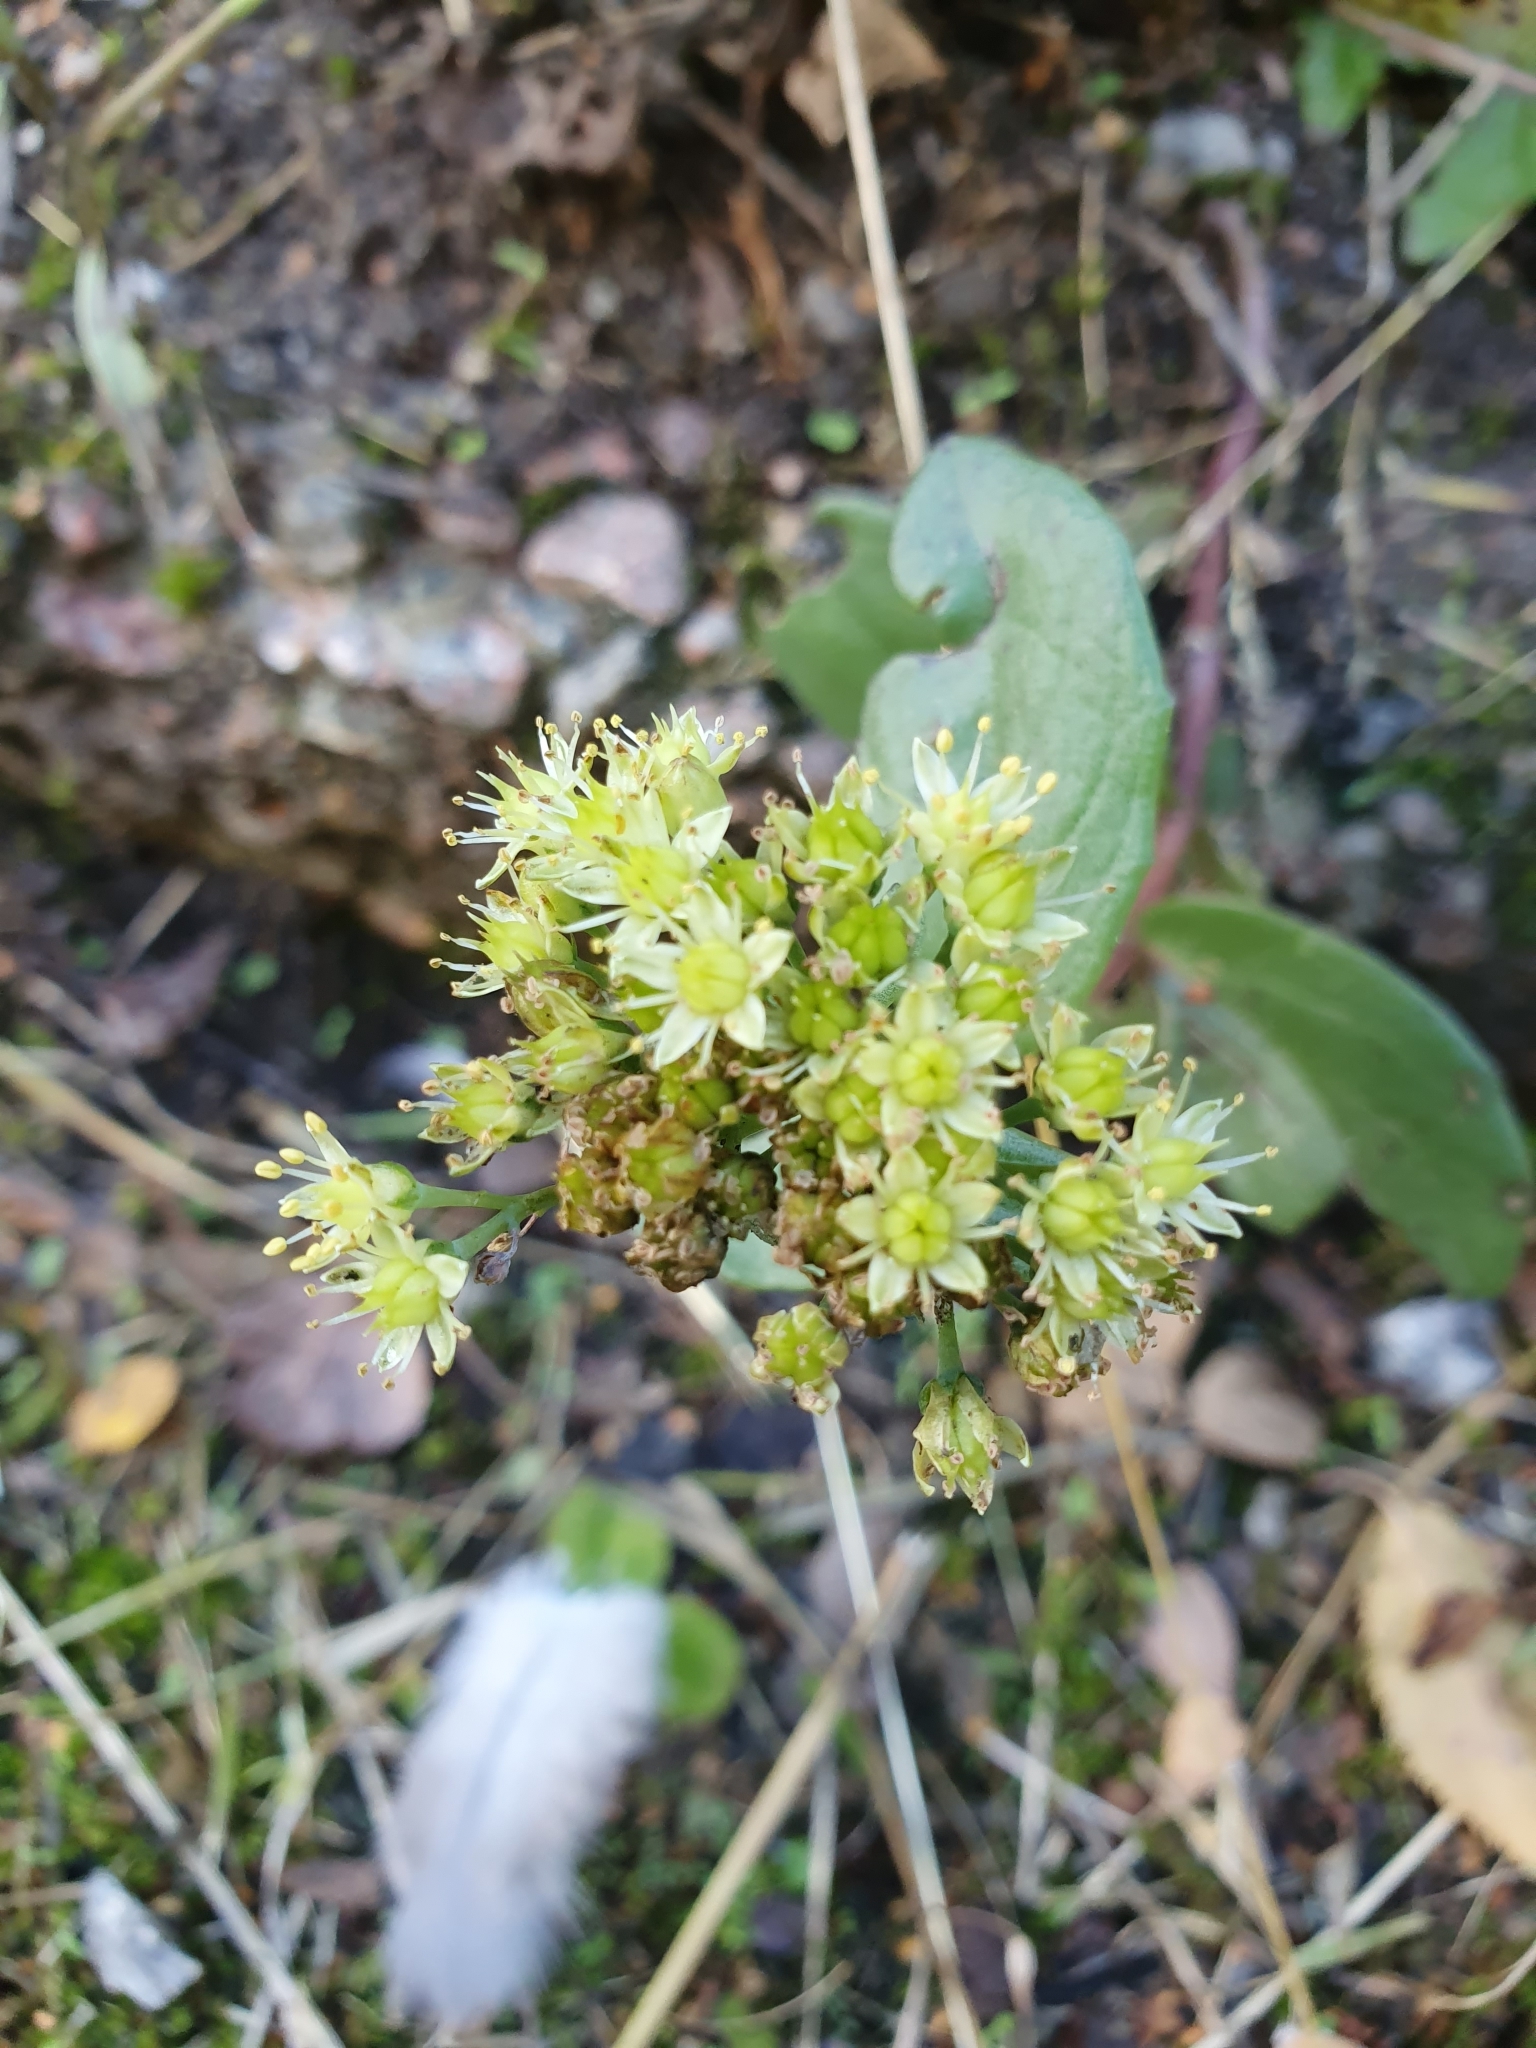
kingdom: Plantae
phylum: Tracheophyta
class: Magnoliopsida
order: Saxifragales
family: Crassulaceae
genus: Hylotelephium
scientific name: Hylotelephium maximum
